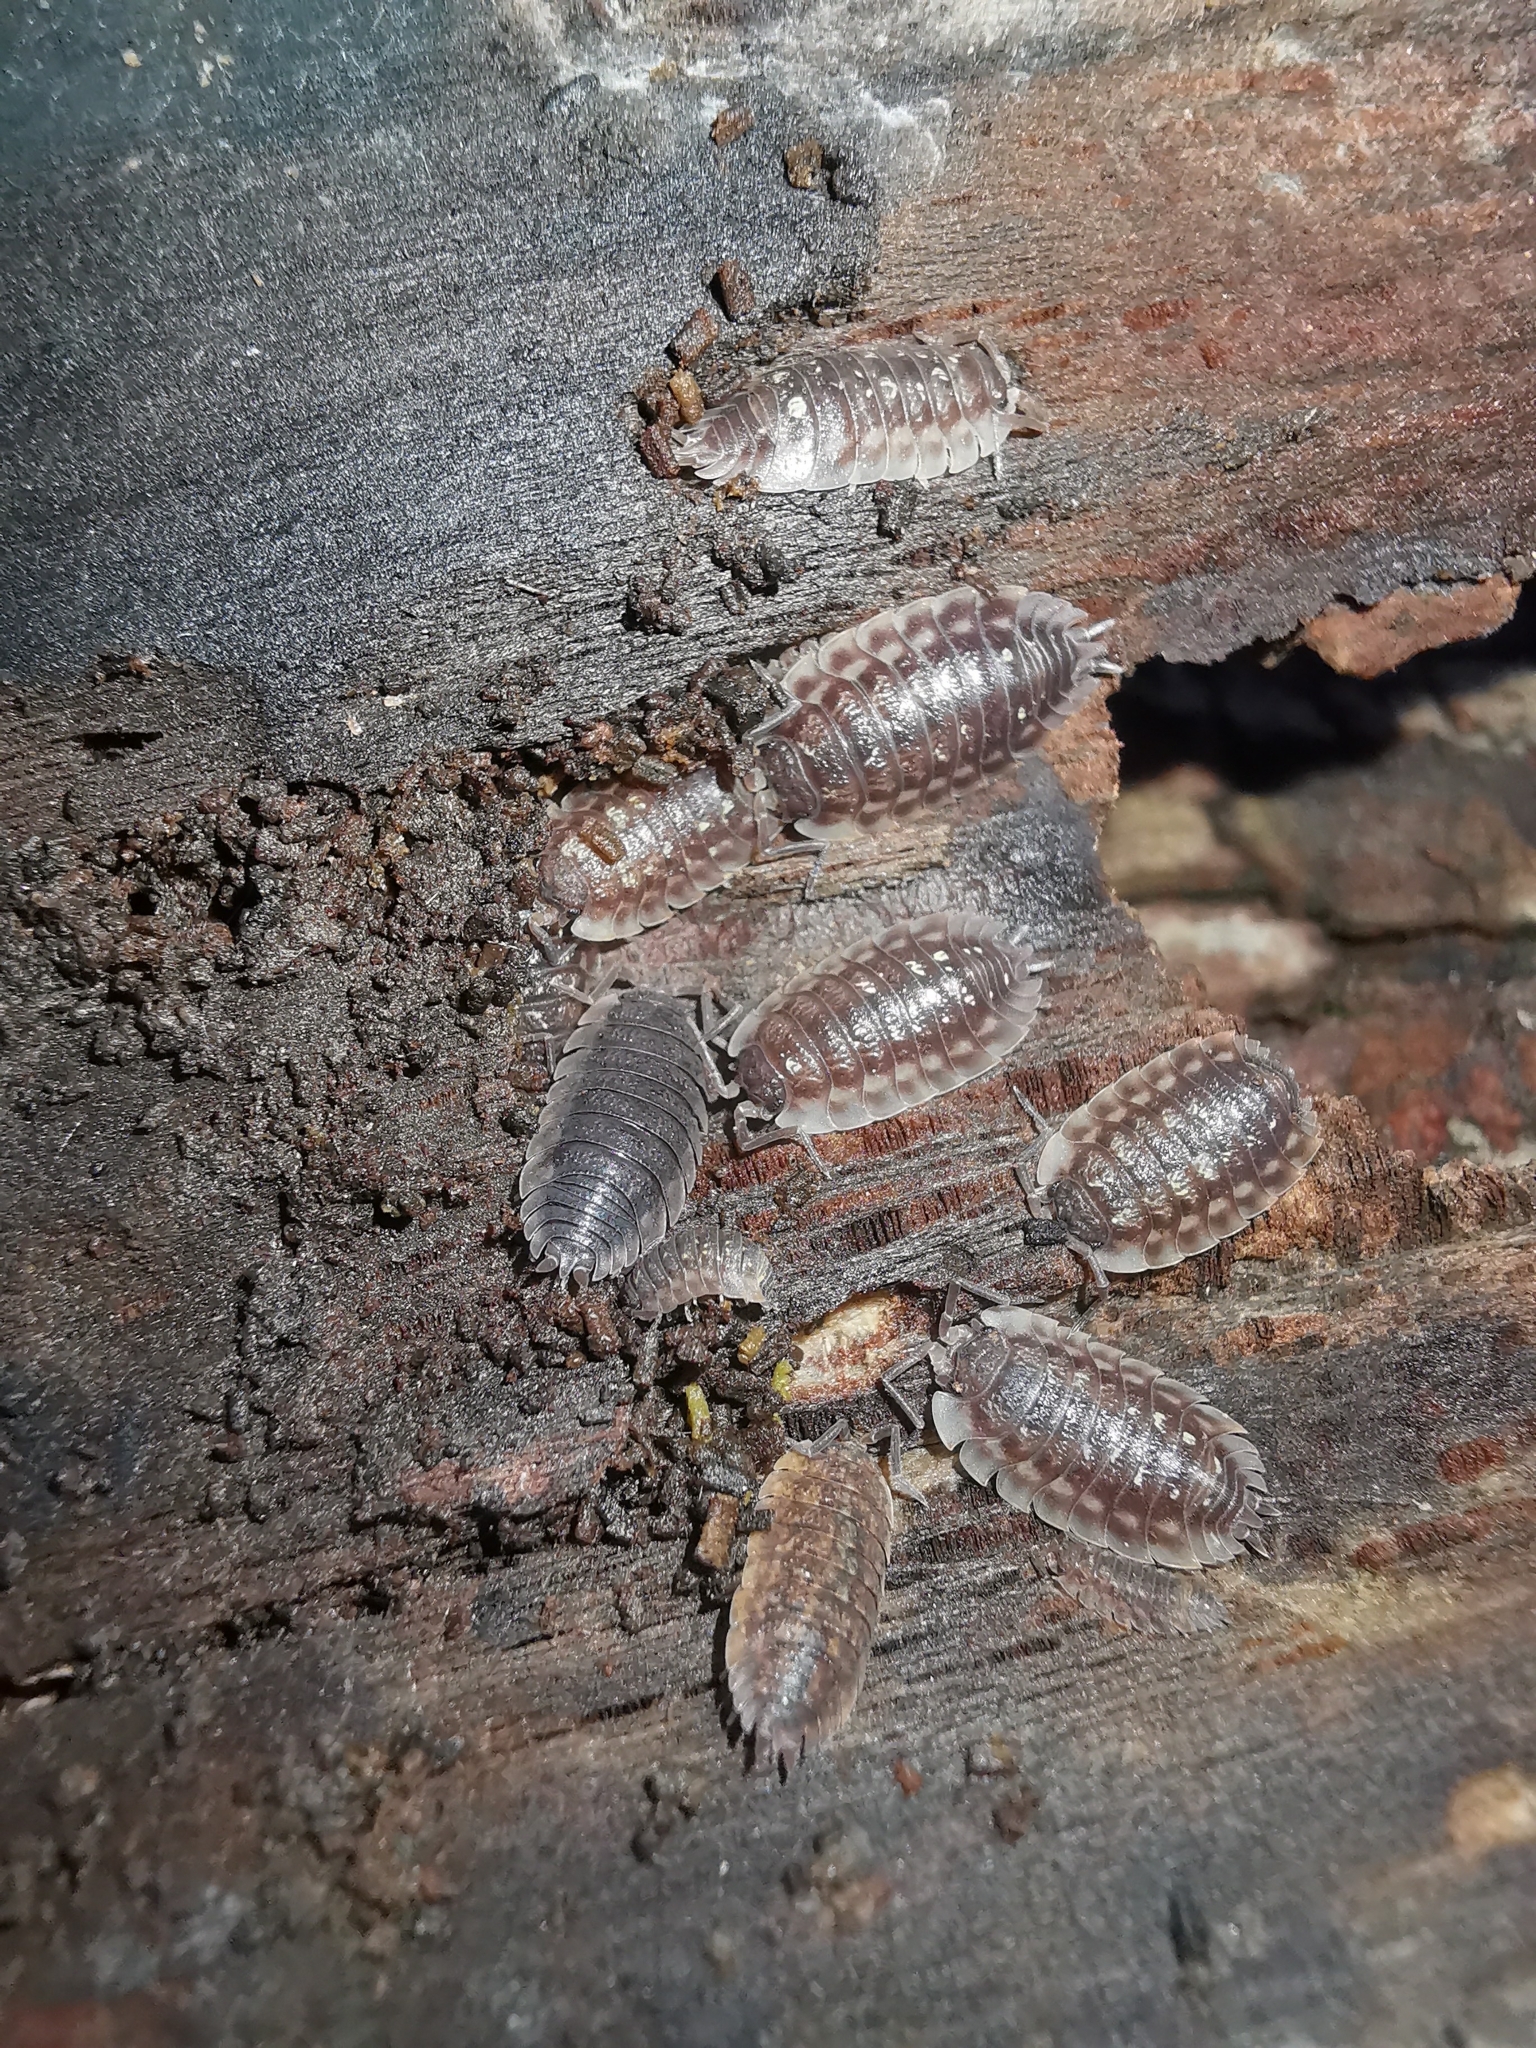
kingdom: Animalia
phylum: Arthropoda
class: Malacostraca
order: Isopoda
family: Oniscidae
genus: Oniscus
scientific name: Oniscus asellus
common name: Common shiny woodlouse
